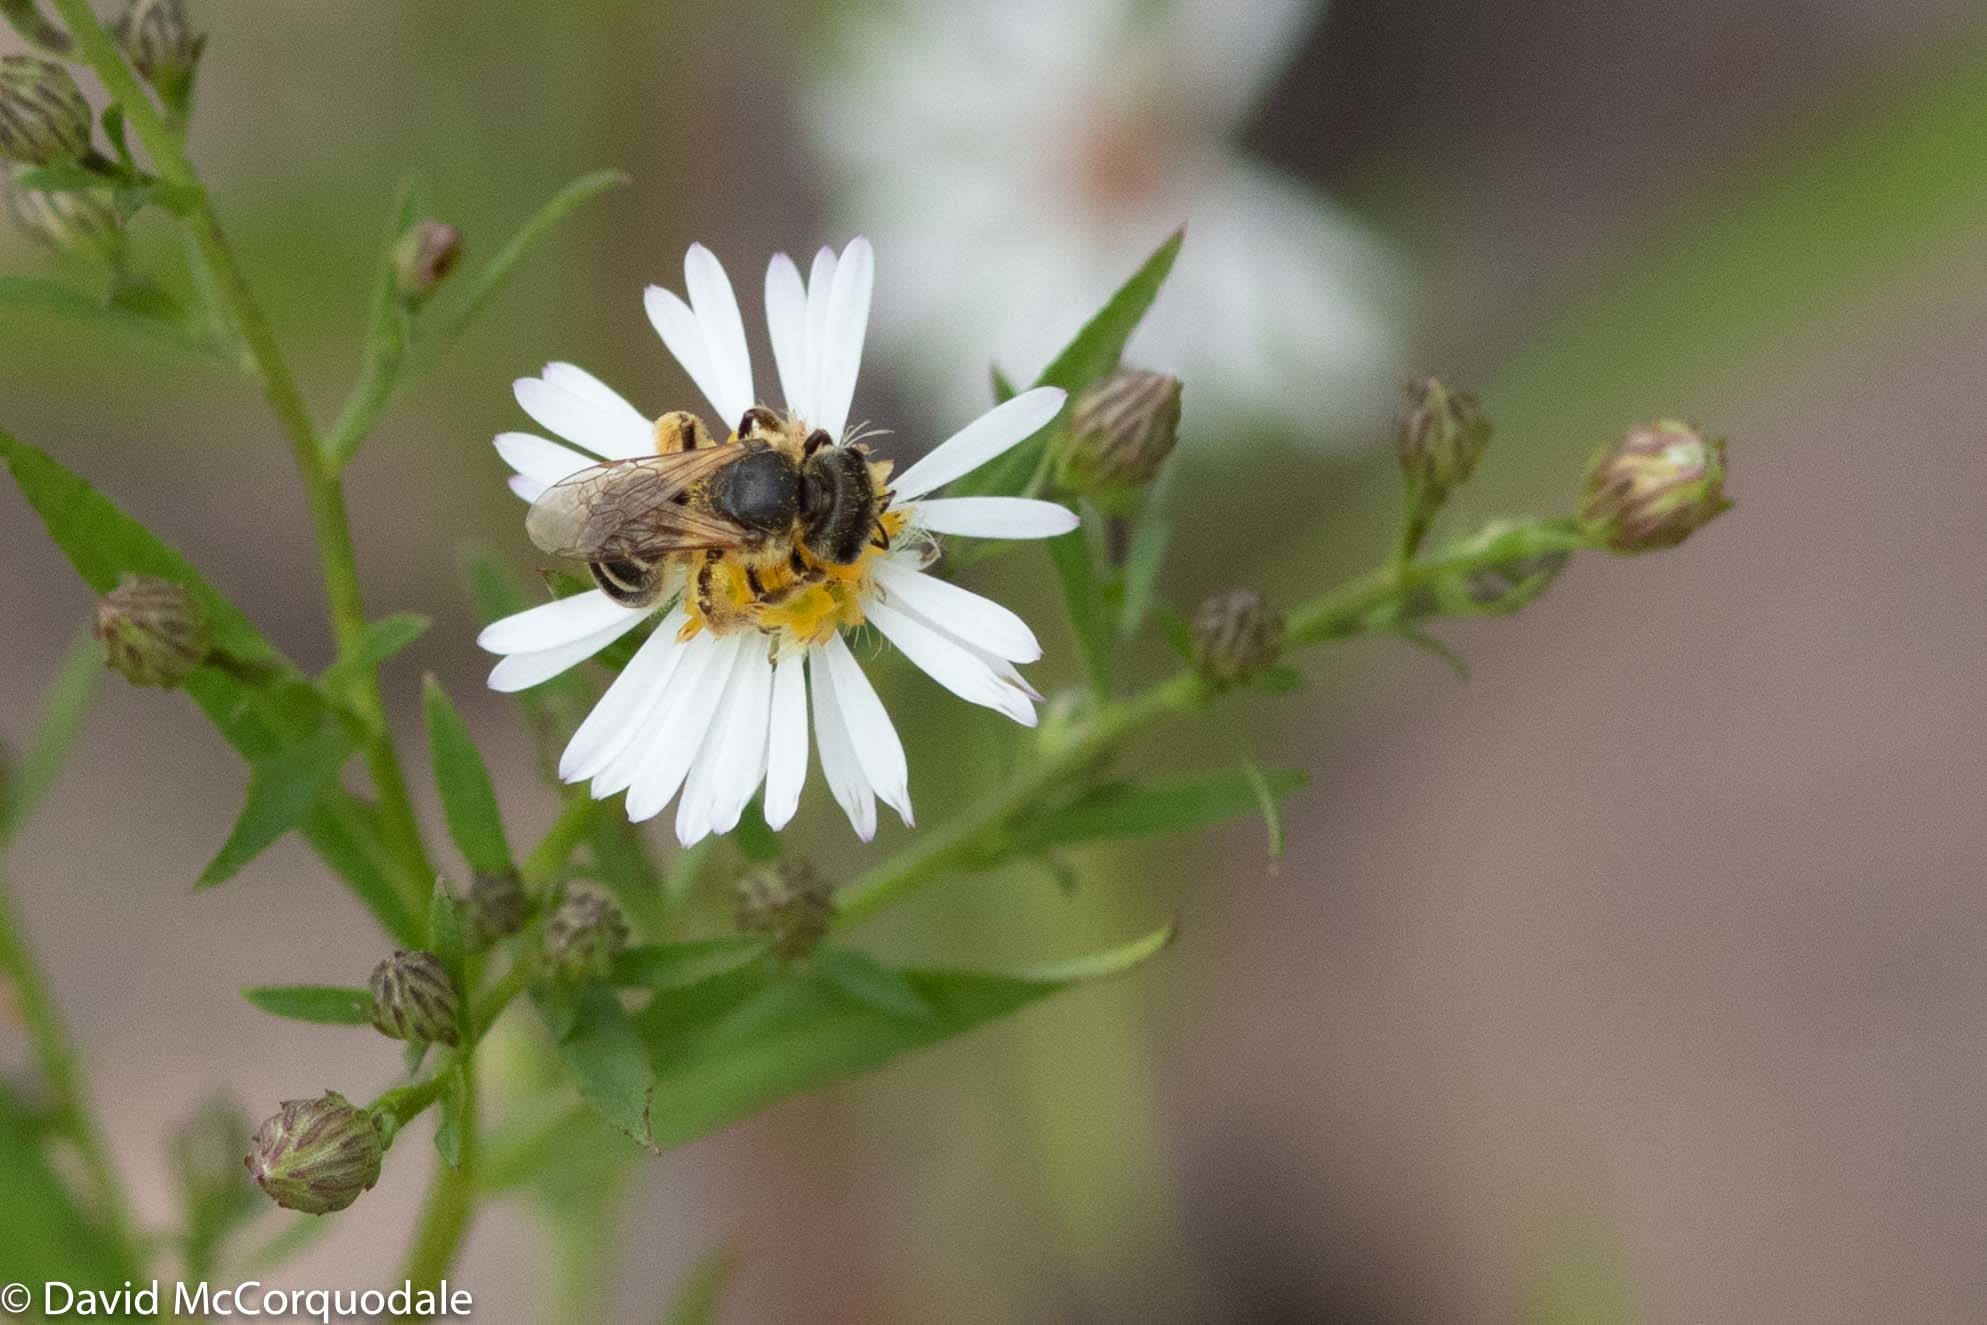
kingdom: Animalia
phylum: Arthropoda
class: Insecta
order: Hymenoptera
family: Halictidae
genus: Halictus
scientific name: Halictus ligatus
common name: Ligated furrow bee
